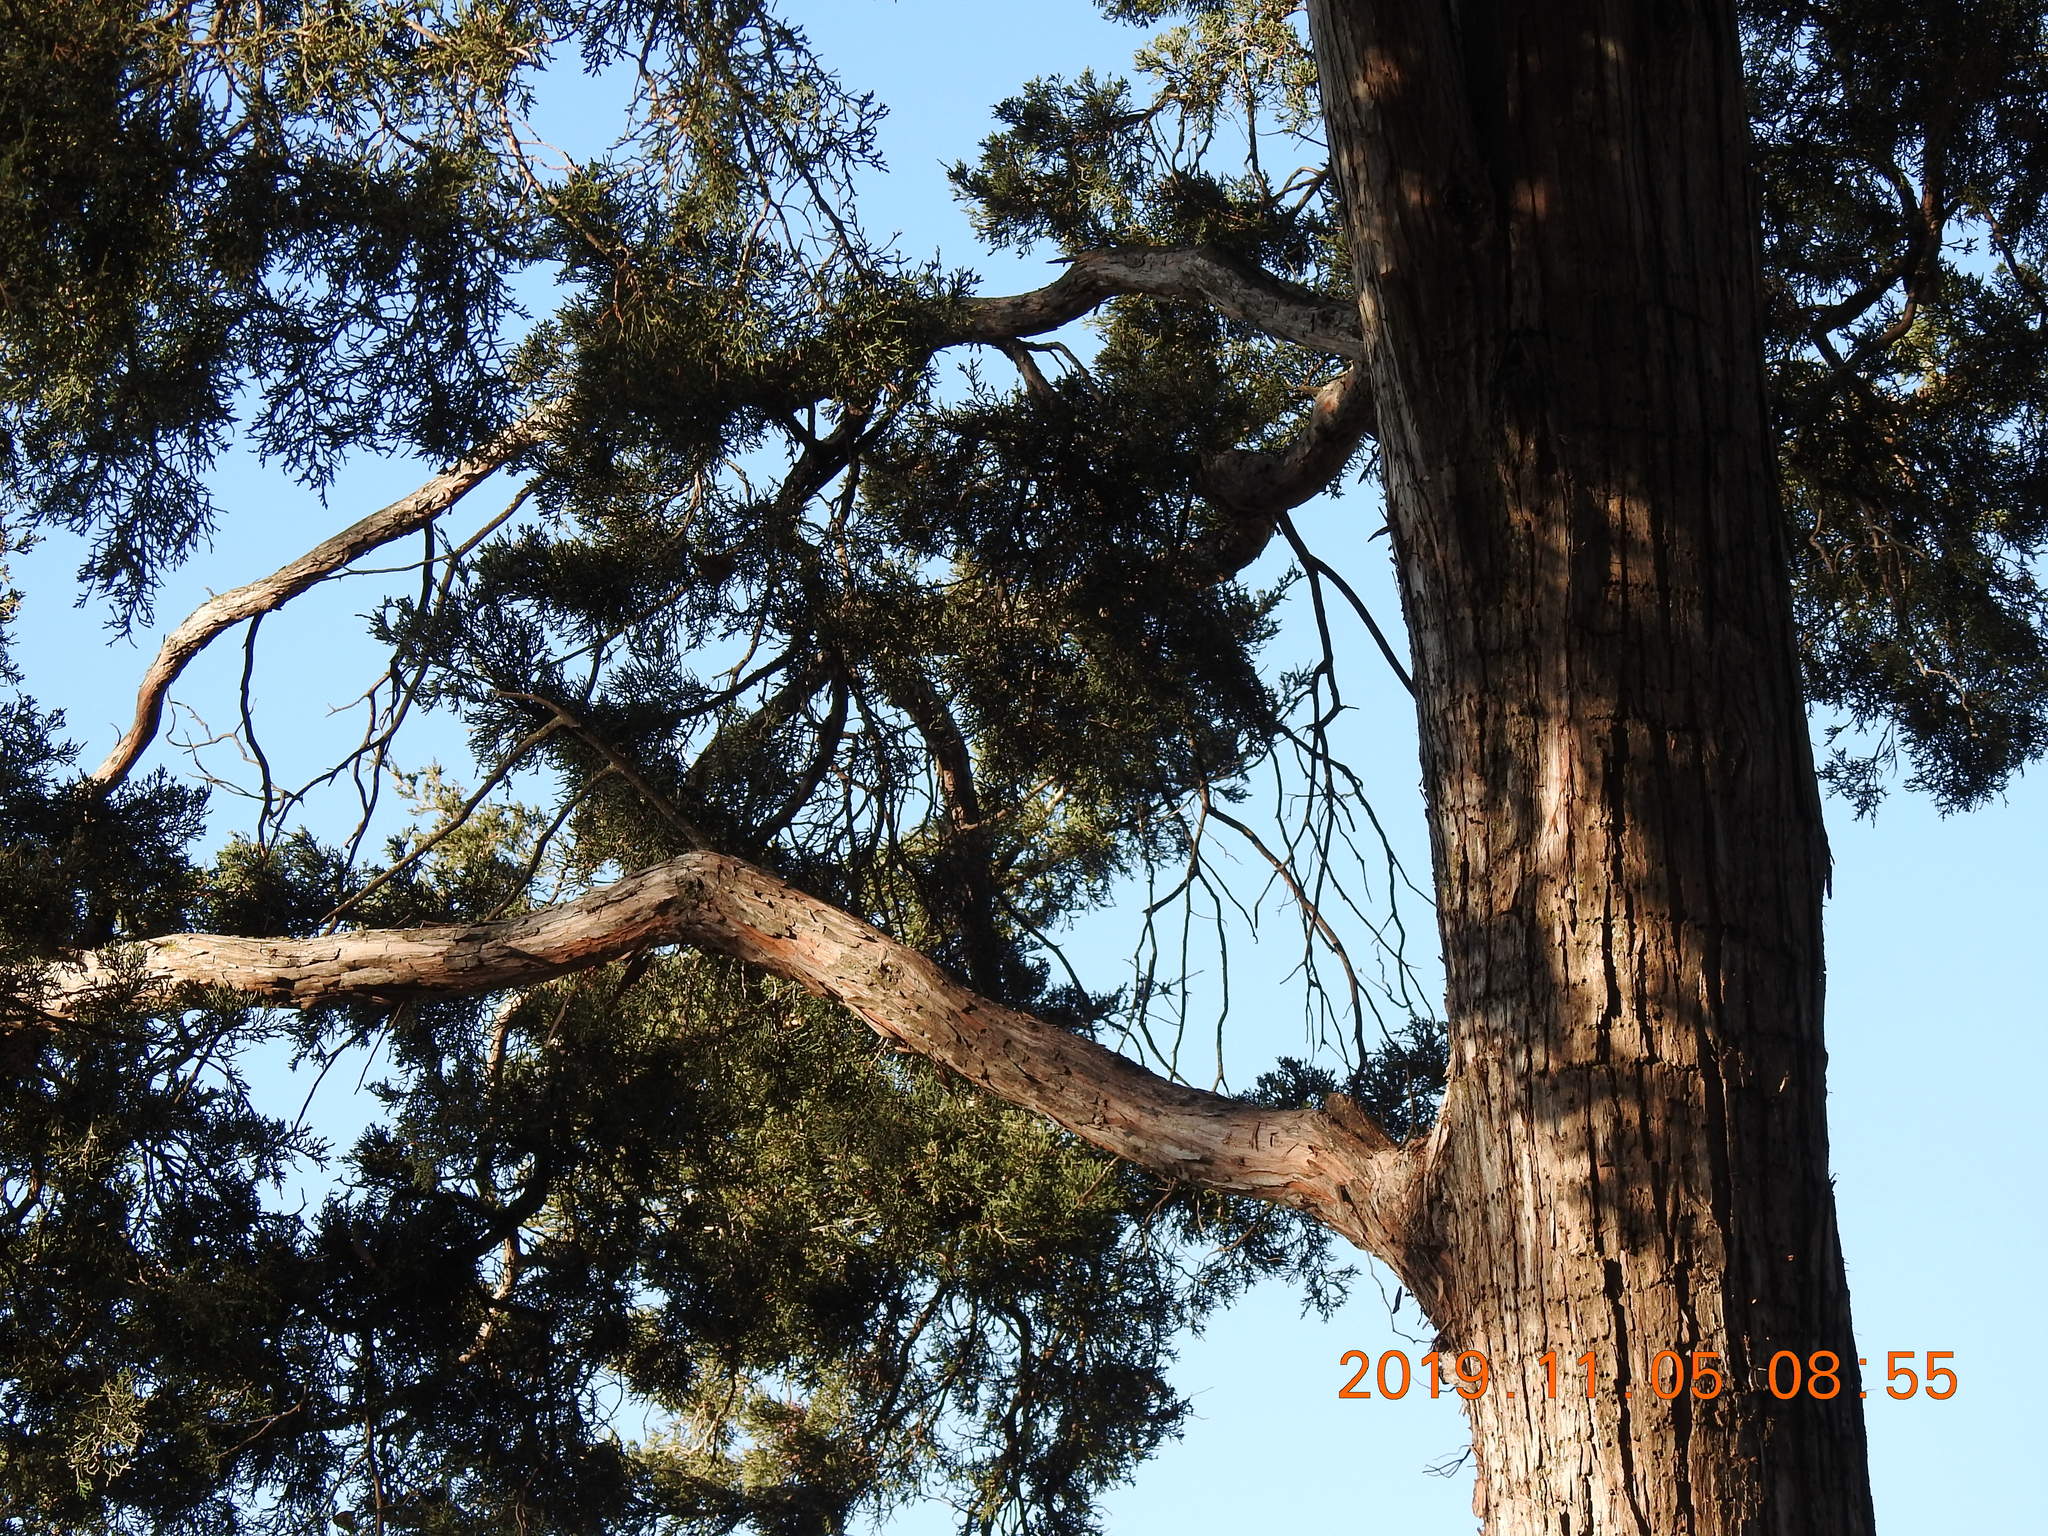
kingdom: Plantae
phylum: Tracheophyta
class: Pinopsida
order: Pinales
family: Cupressaceae
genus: Juniperus
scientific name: Juniperus virginiana
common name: Red juniper
